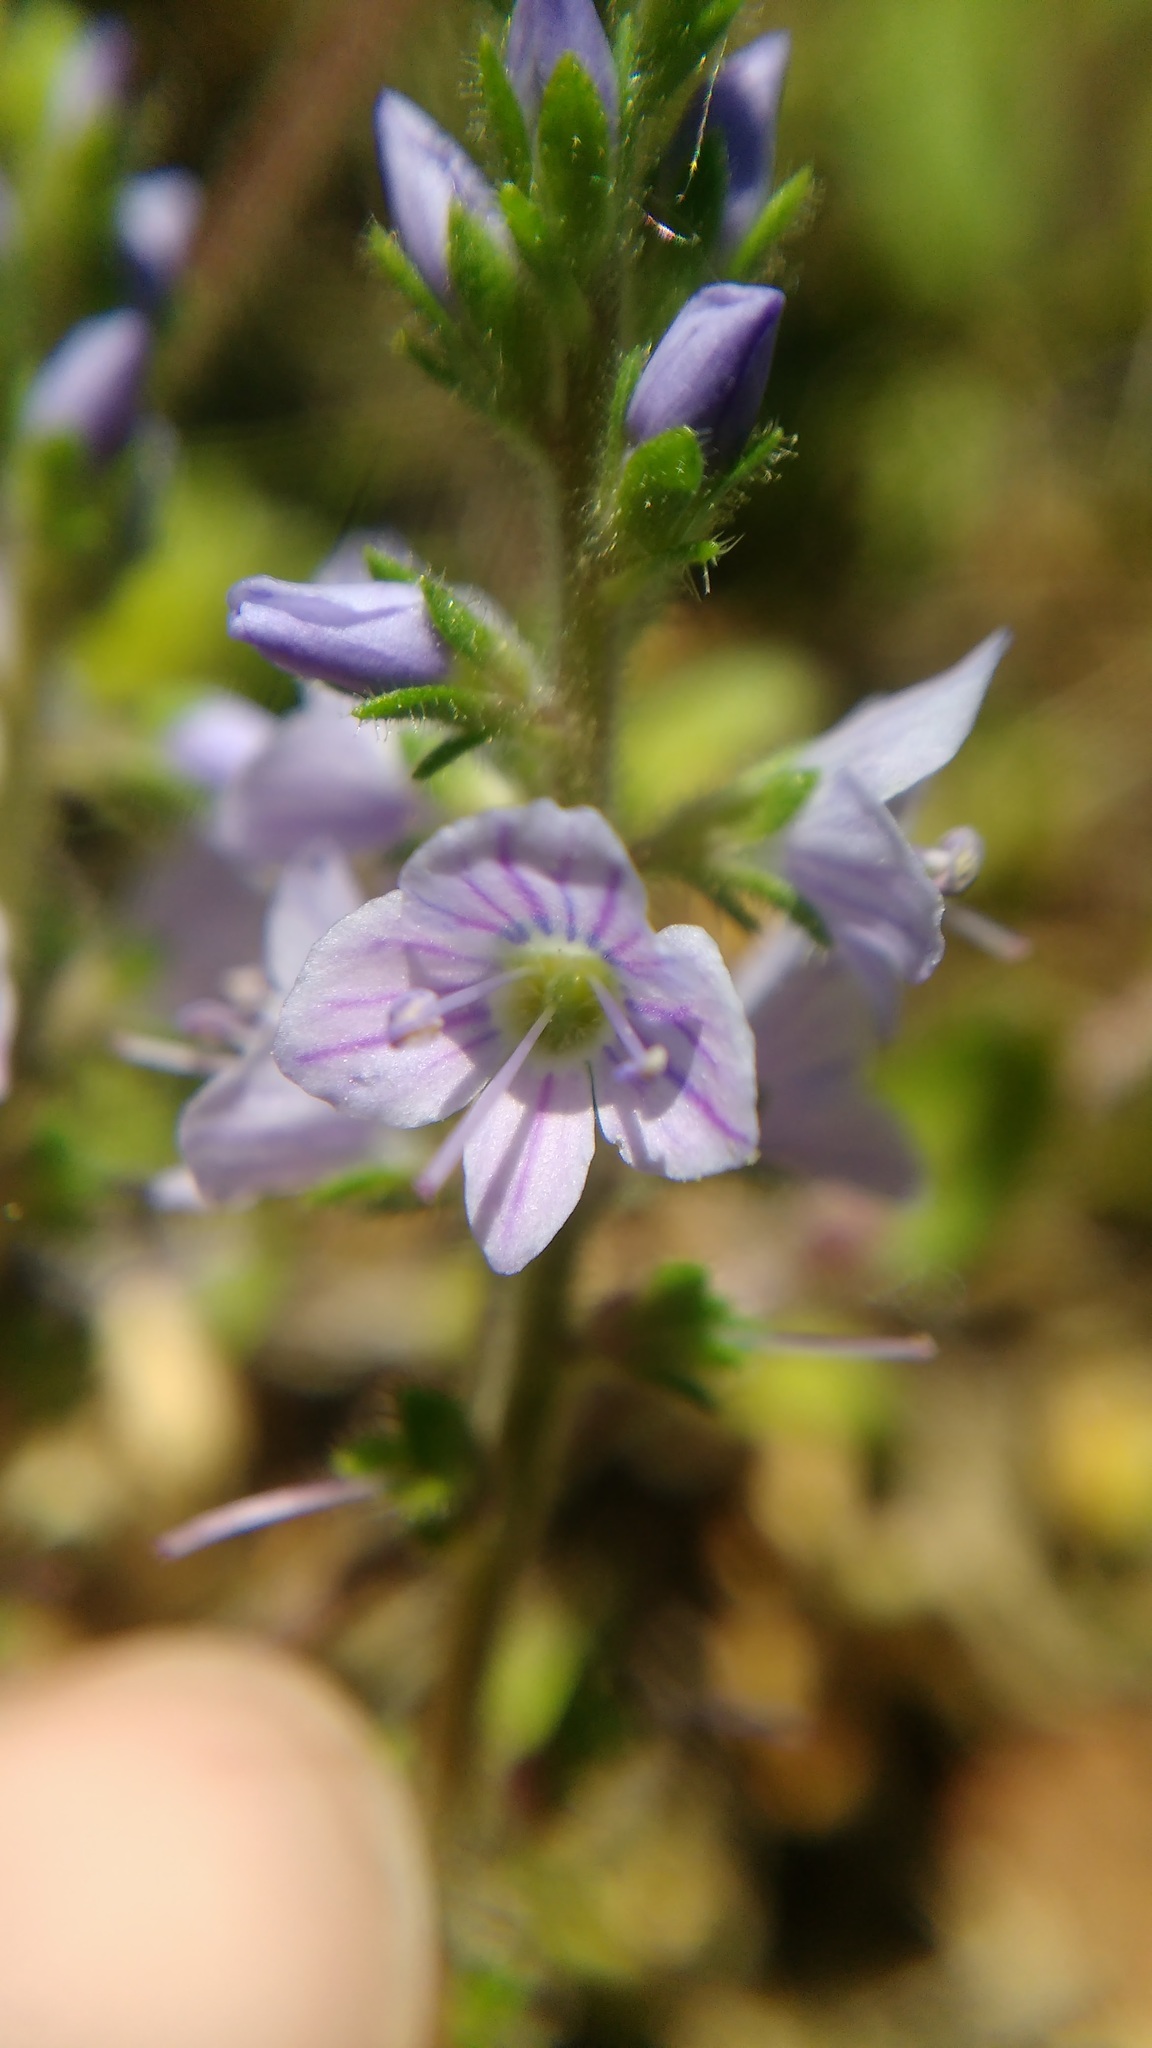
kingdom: Plantae
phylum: Tracheophyta
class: Magnoliopsida
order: Lamiales
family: Plantaginaceae
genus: Veronica
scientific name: Veronica officinalis
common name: Common speedwell
